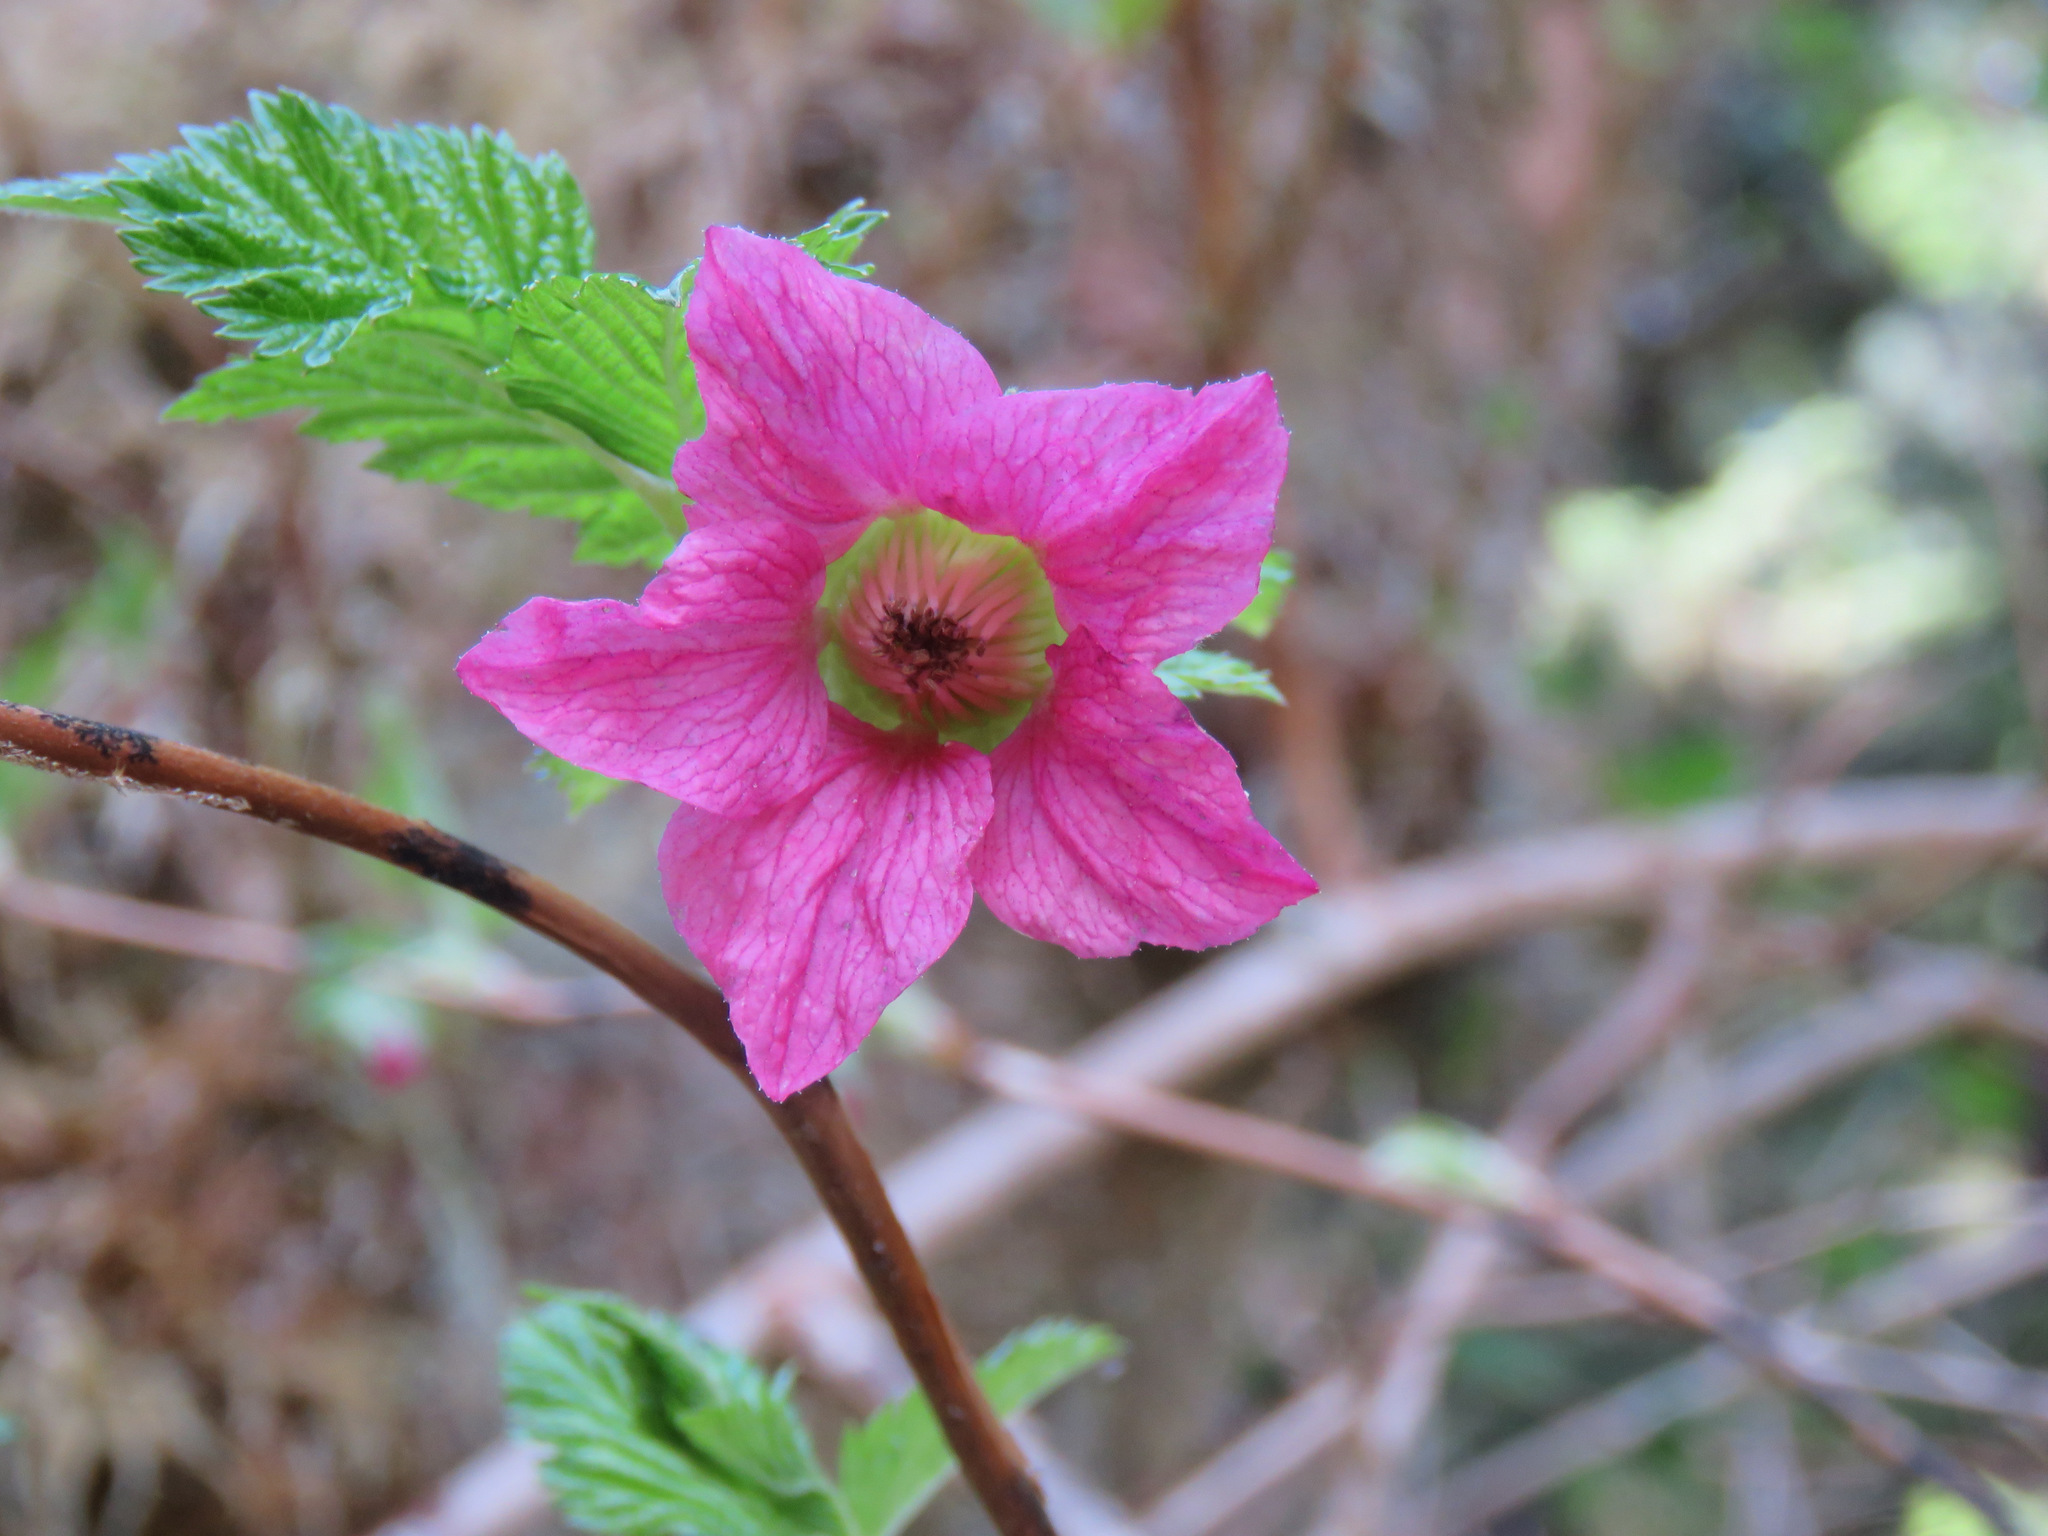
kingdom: Plantae
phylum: Tracheophyta
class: Magnoliopsida
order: Rosales
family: Rosaceae
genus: Rubus
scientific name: Rubus spectabilis
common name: Salmonberry
